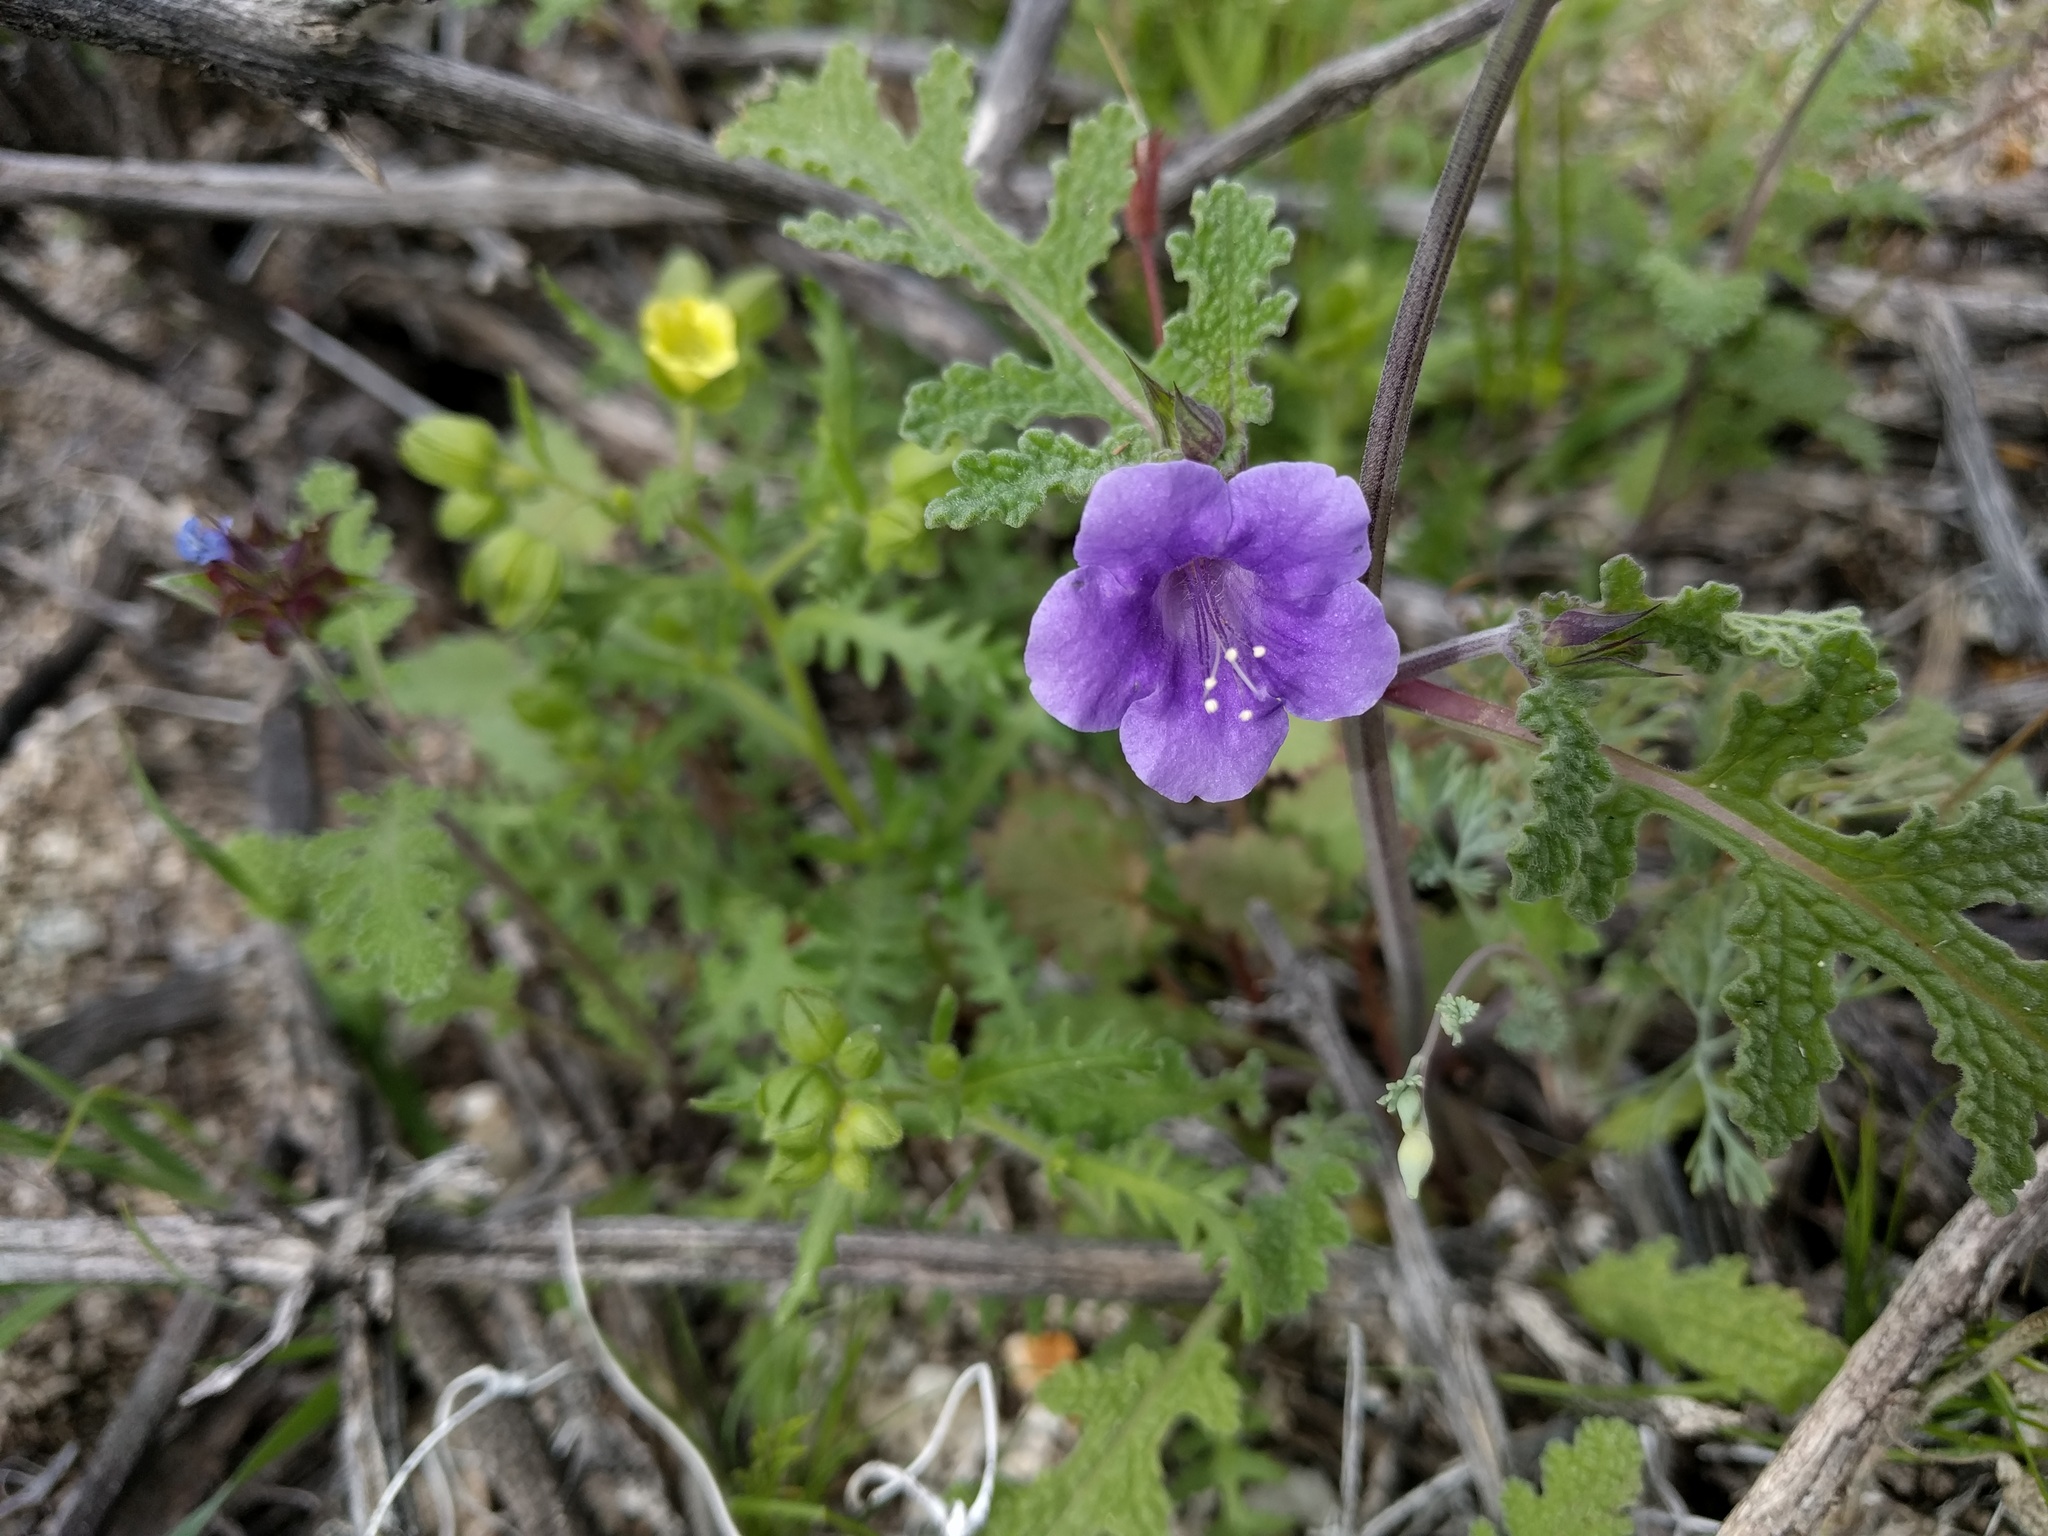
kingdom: Plantae
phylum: Tracheophyta
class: Magnoliopsida
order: Boraginales
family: Hydrophyllaceae
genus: Phacelia
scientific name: Phacelia minor
